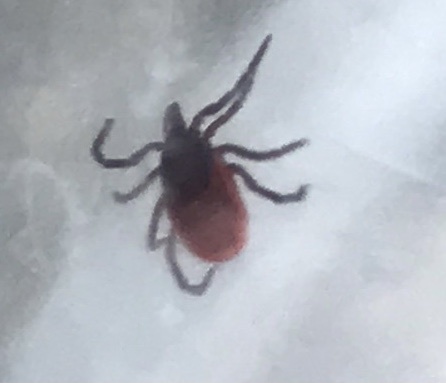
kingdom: Animalia
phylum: Arthropoda
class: Arachnida
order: Ixodida
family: Ixodidae
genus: Ixodes
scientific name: Ixodes pacificus
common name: California black-legged tick
